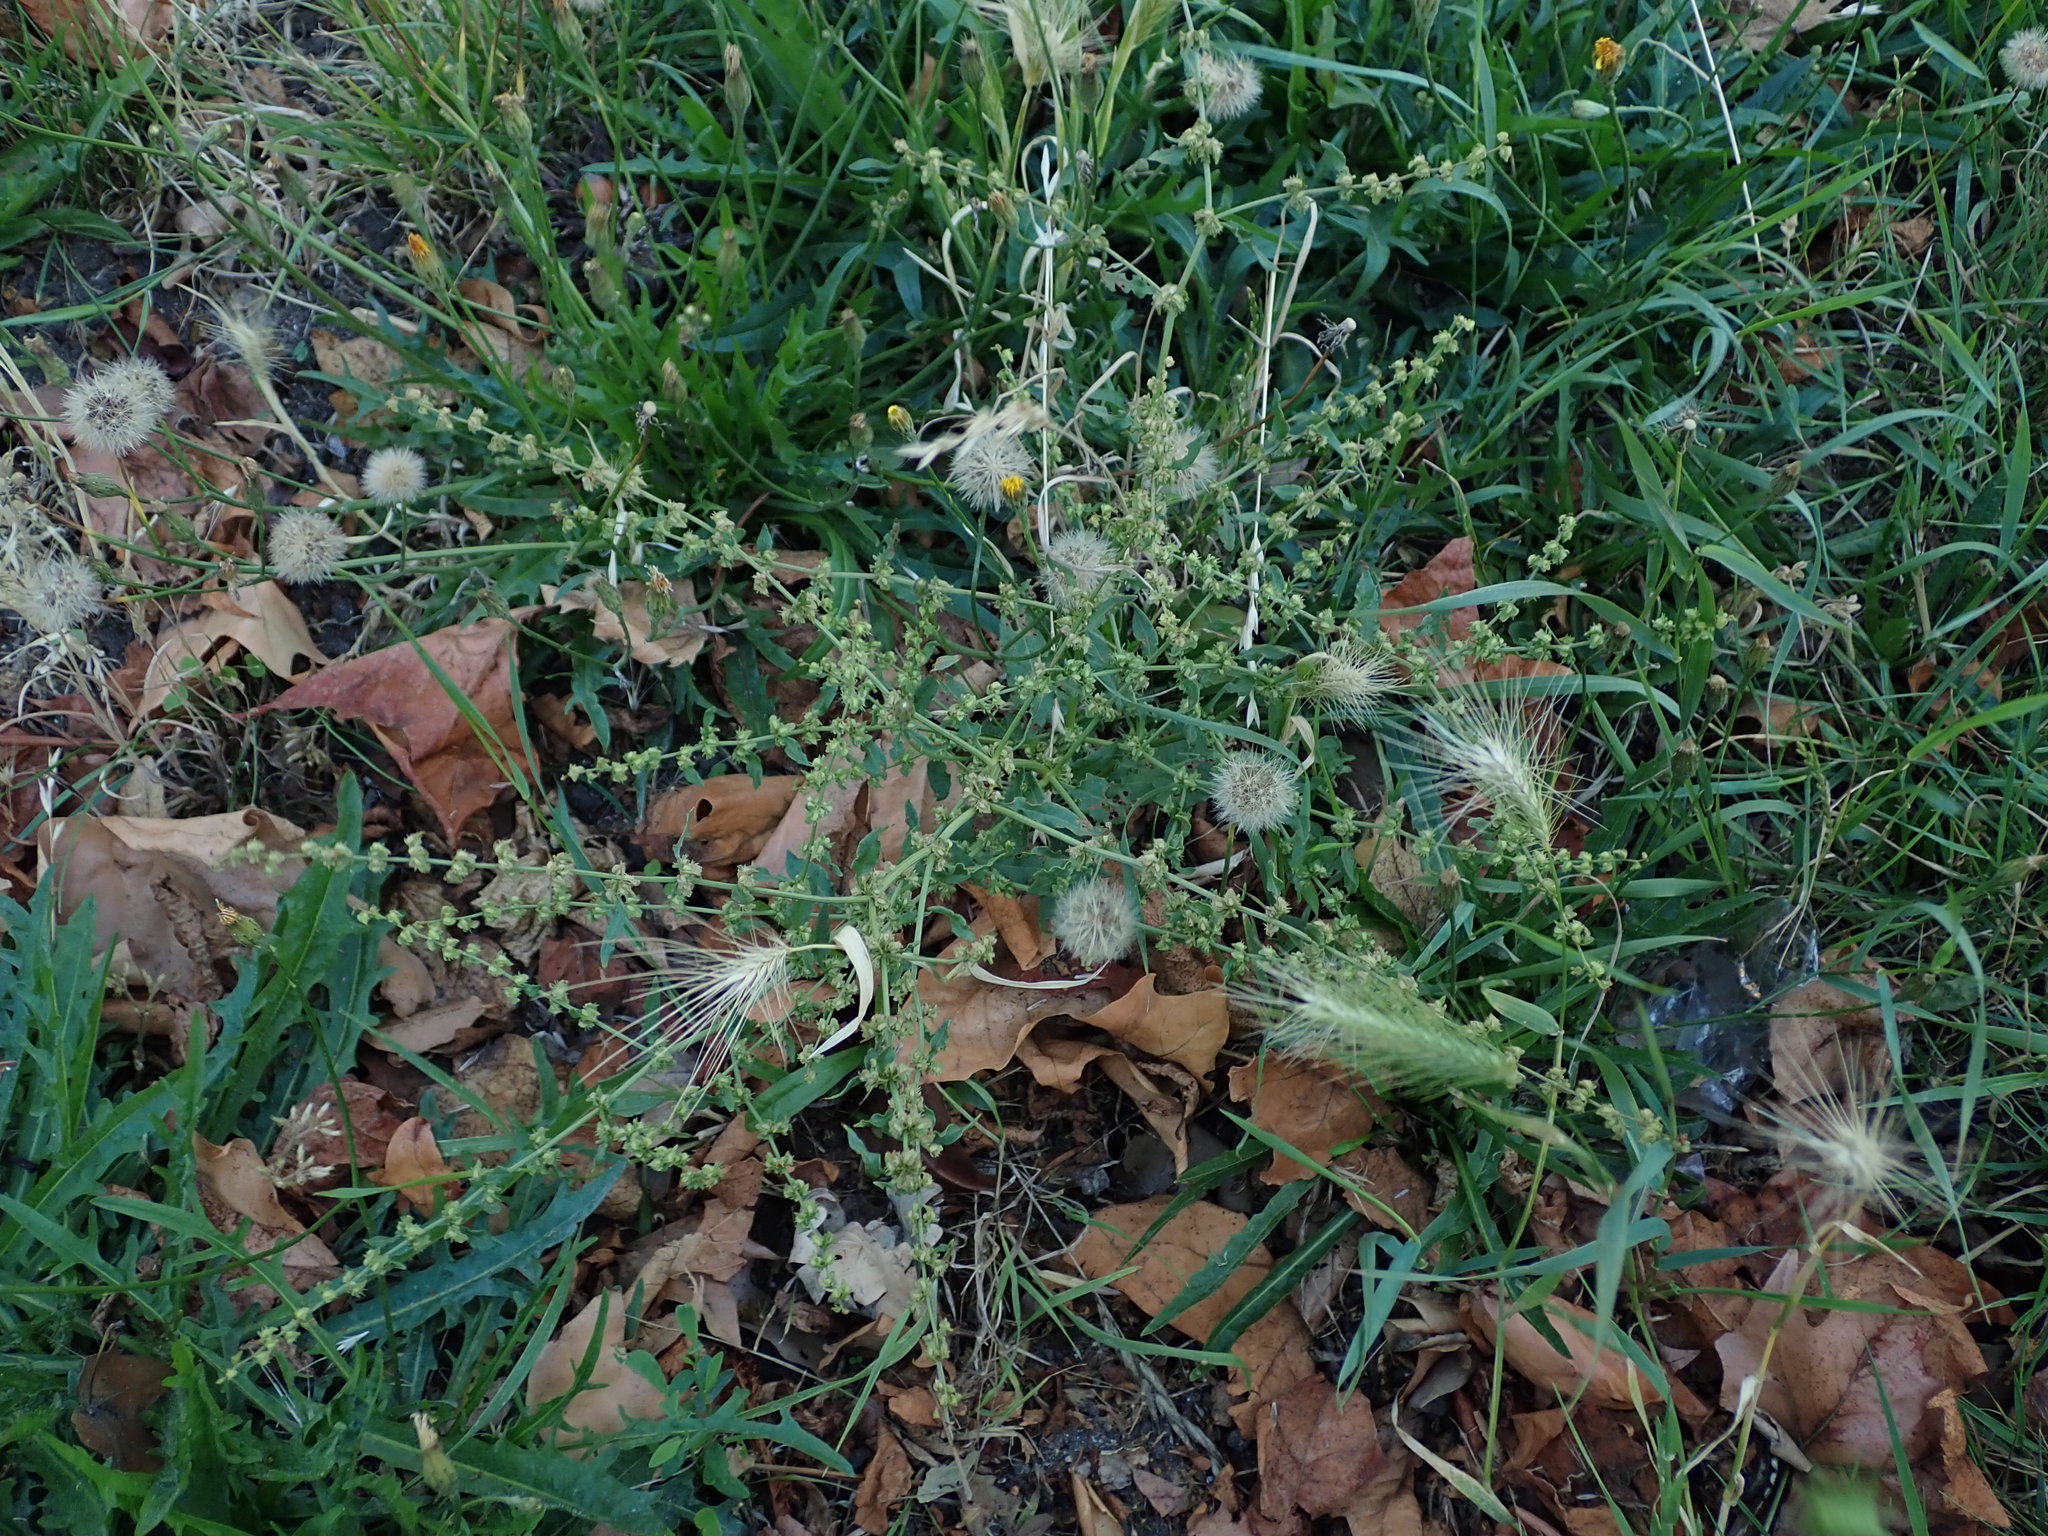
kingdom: Plantae
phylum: Tracheophyta
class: Magnoliopsida
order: Caryophyllales
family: Polygonaceae
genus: Rumex
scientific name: Rumex pulcher
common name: Fiddle dock
